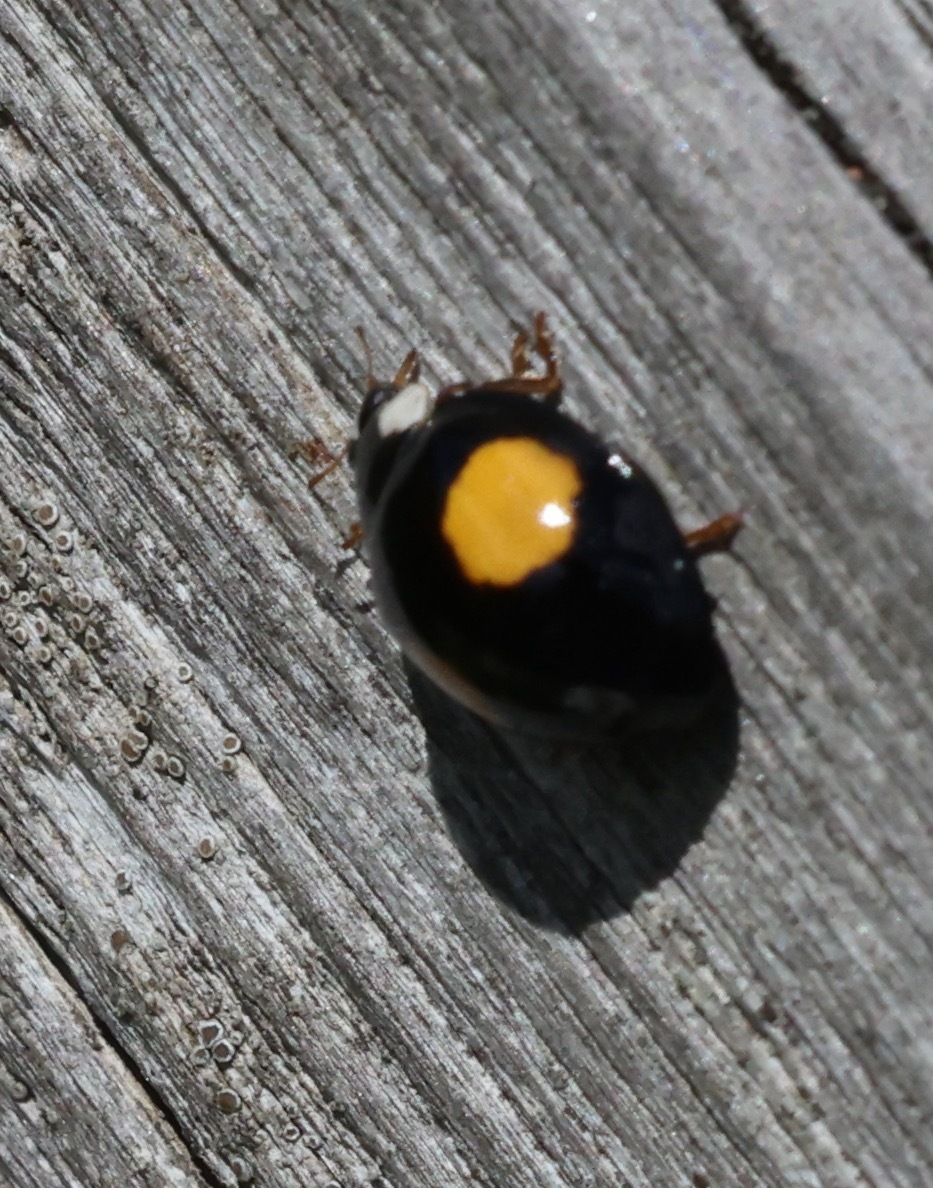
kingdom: Animalia
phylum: Arthropoda
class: Insecta
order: Coleoptera
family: Coccinellidae
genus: Harmonia
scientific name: Harmonia axyridis
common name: Harlequin ladybird
